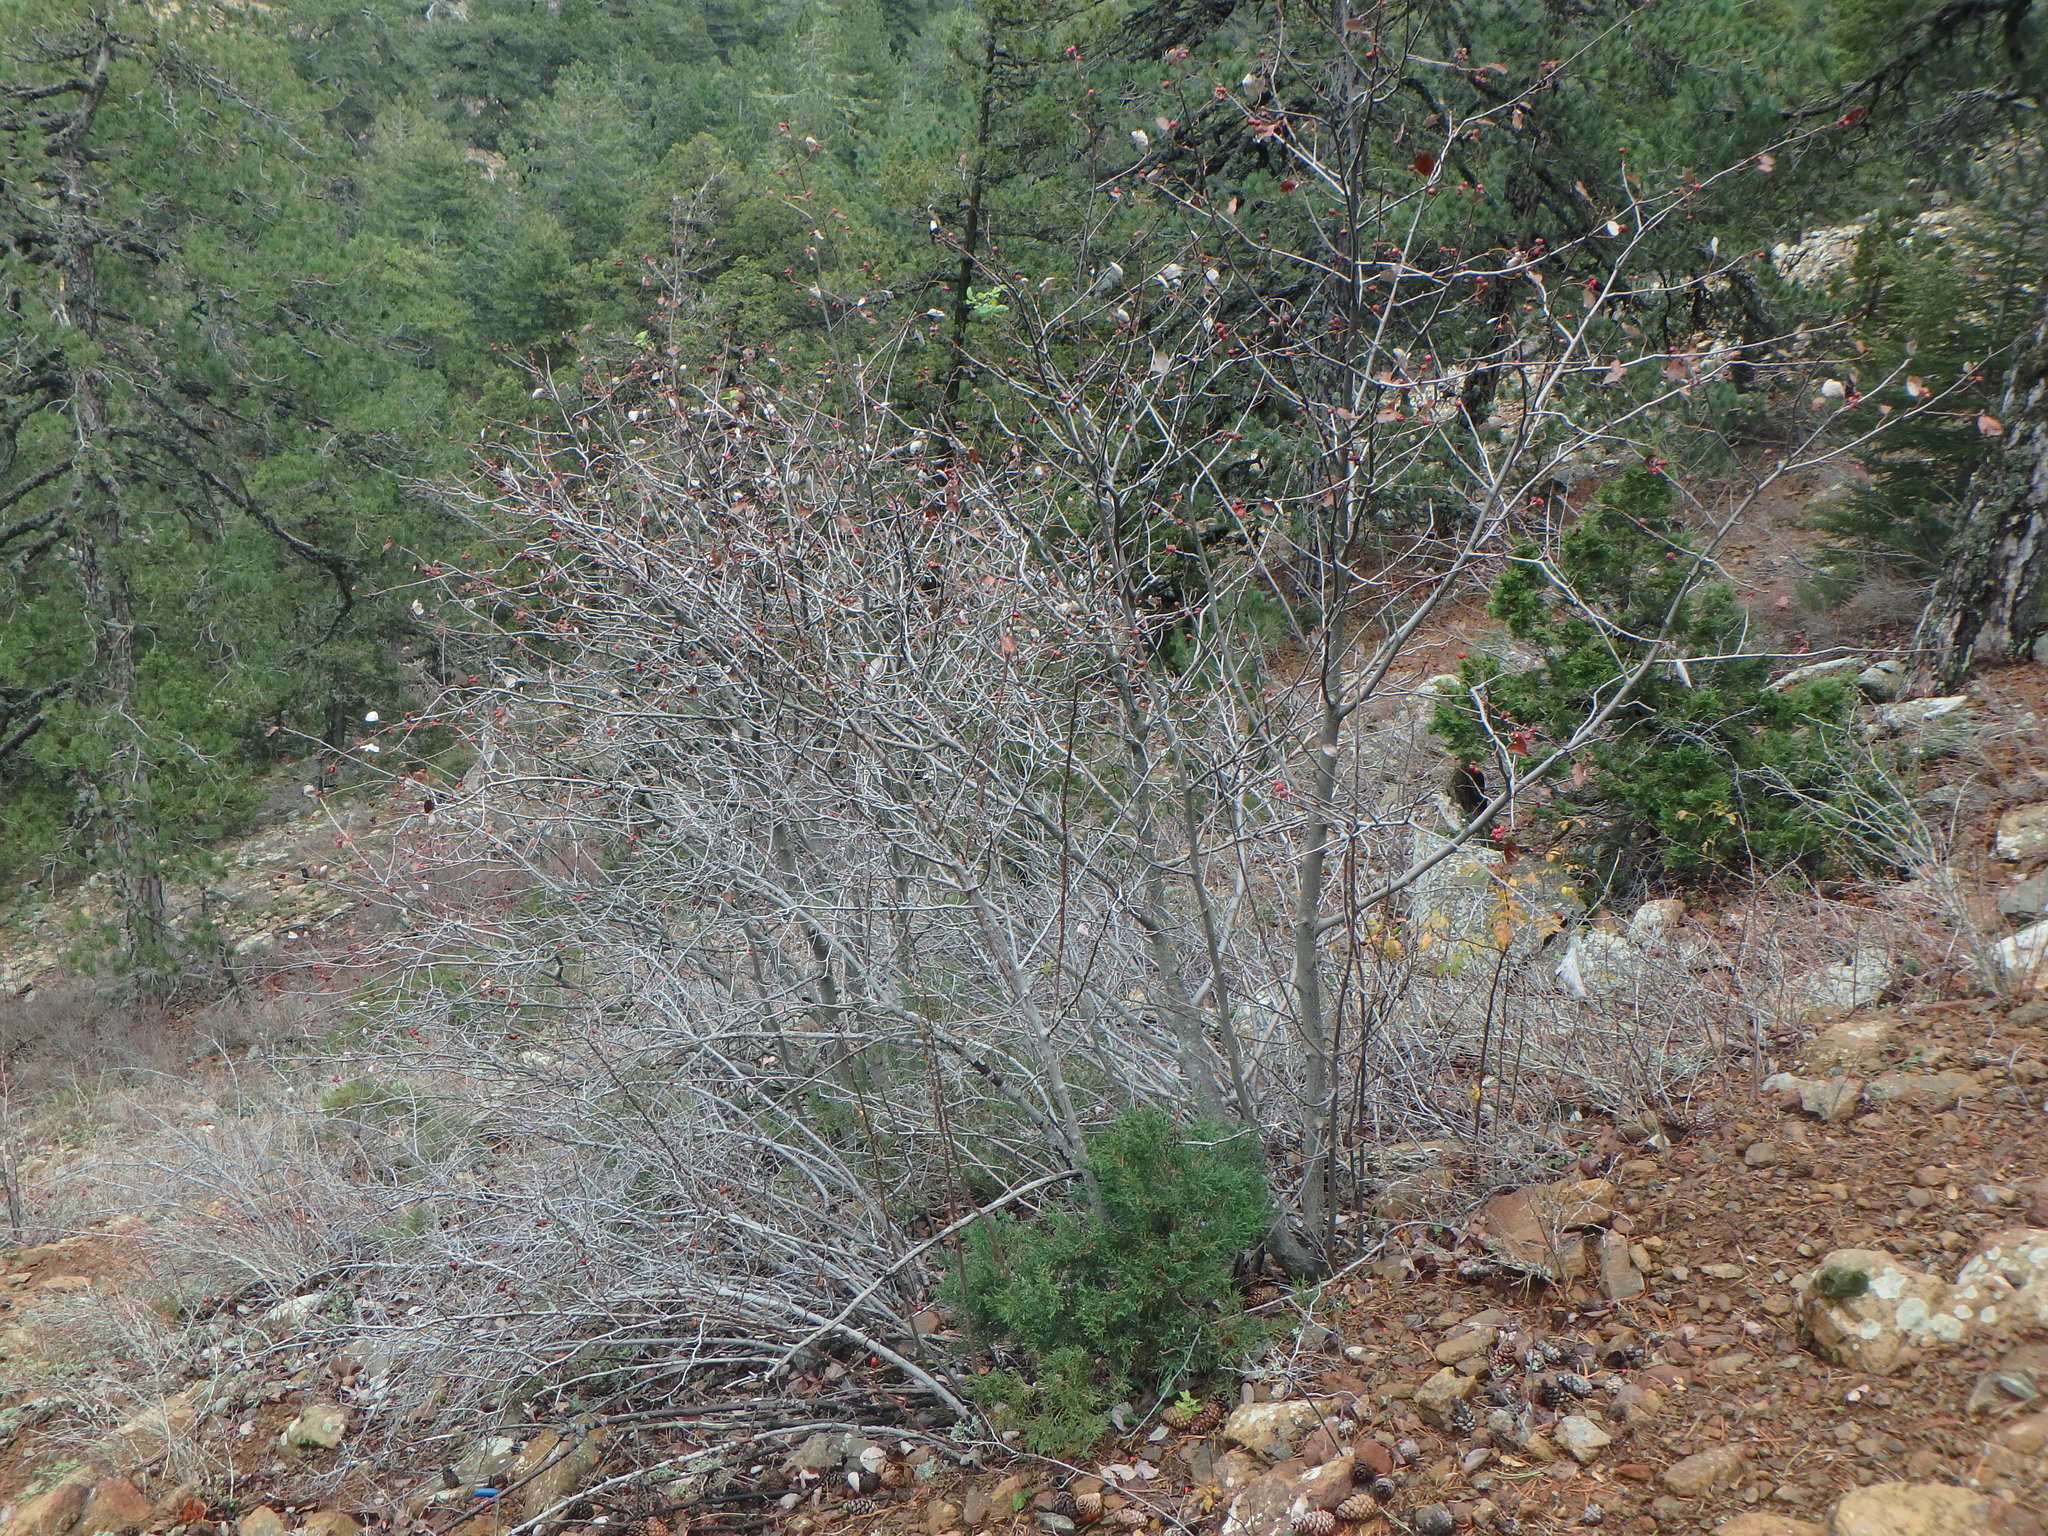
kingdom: Plantae
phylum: Tracheophyta
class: Magnoliopsida
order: Rosales
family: Rosaceae
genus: Aria
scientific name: Aria graeca
